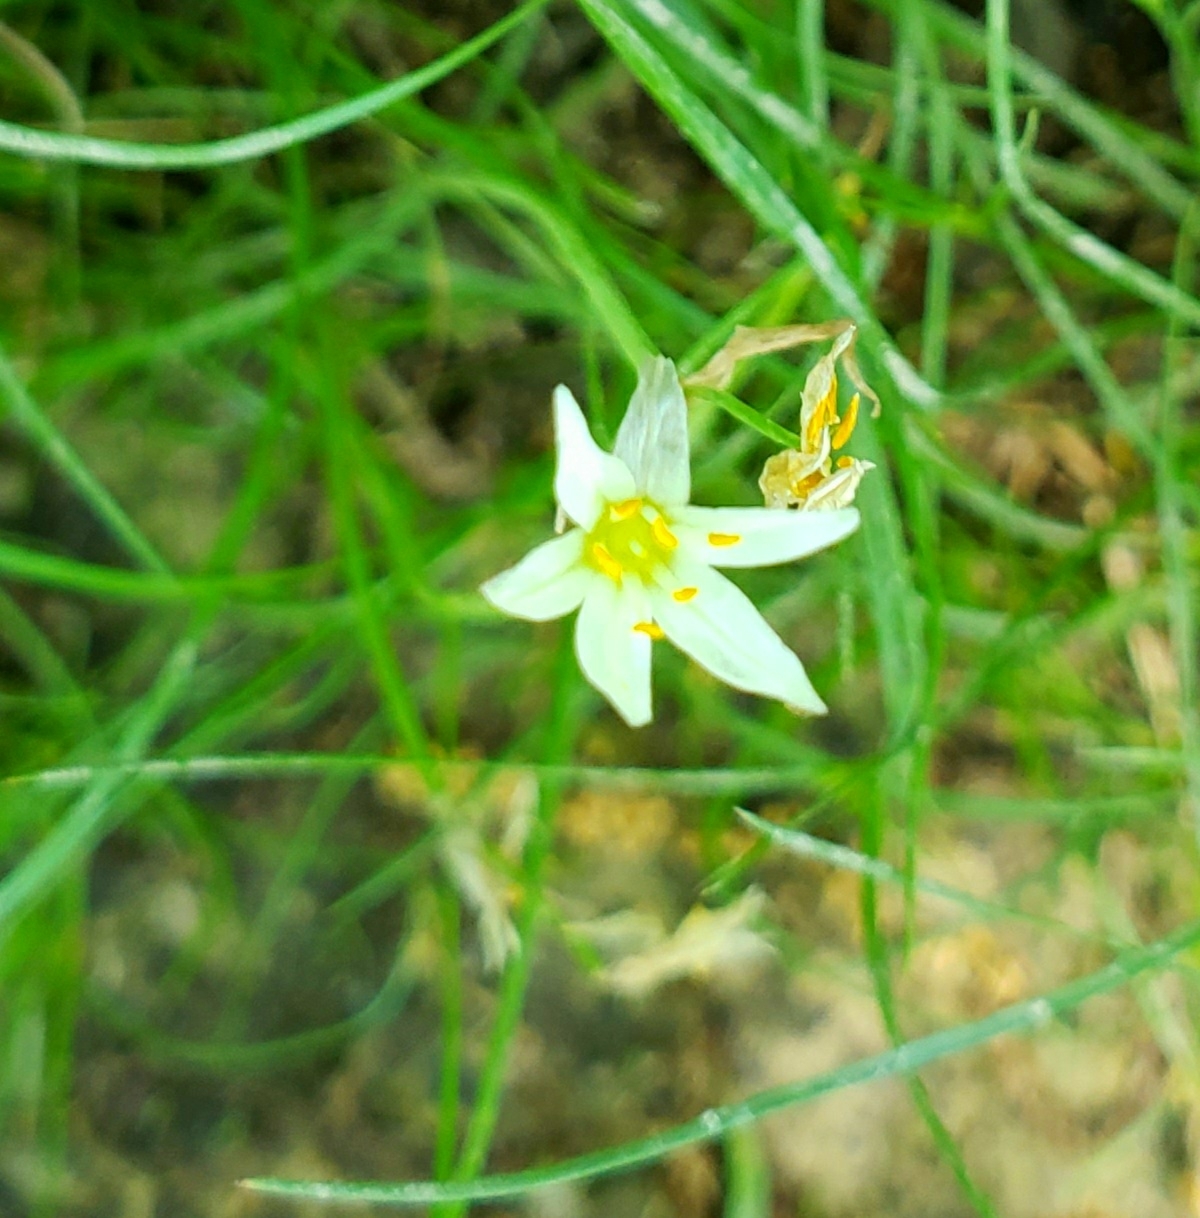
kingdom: Plantae
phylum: Tracheophyta
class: Liliopsida
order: Asparagales
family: Amaryllidaceae
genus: Nothoscordum
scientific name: Nothoscordum bivalve
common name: Crow-poison
